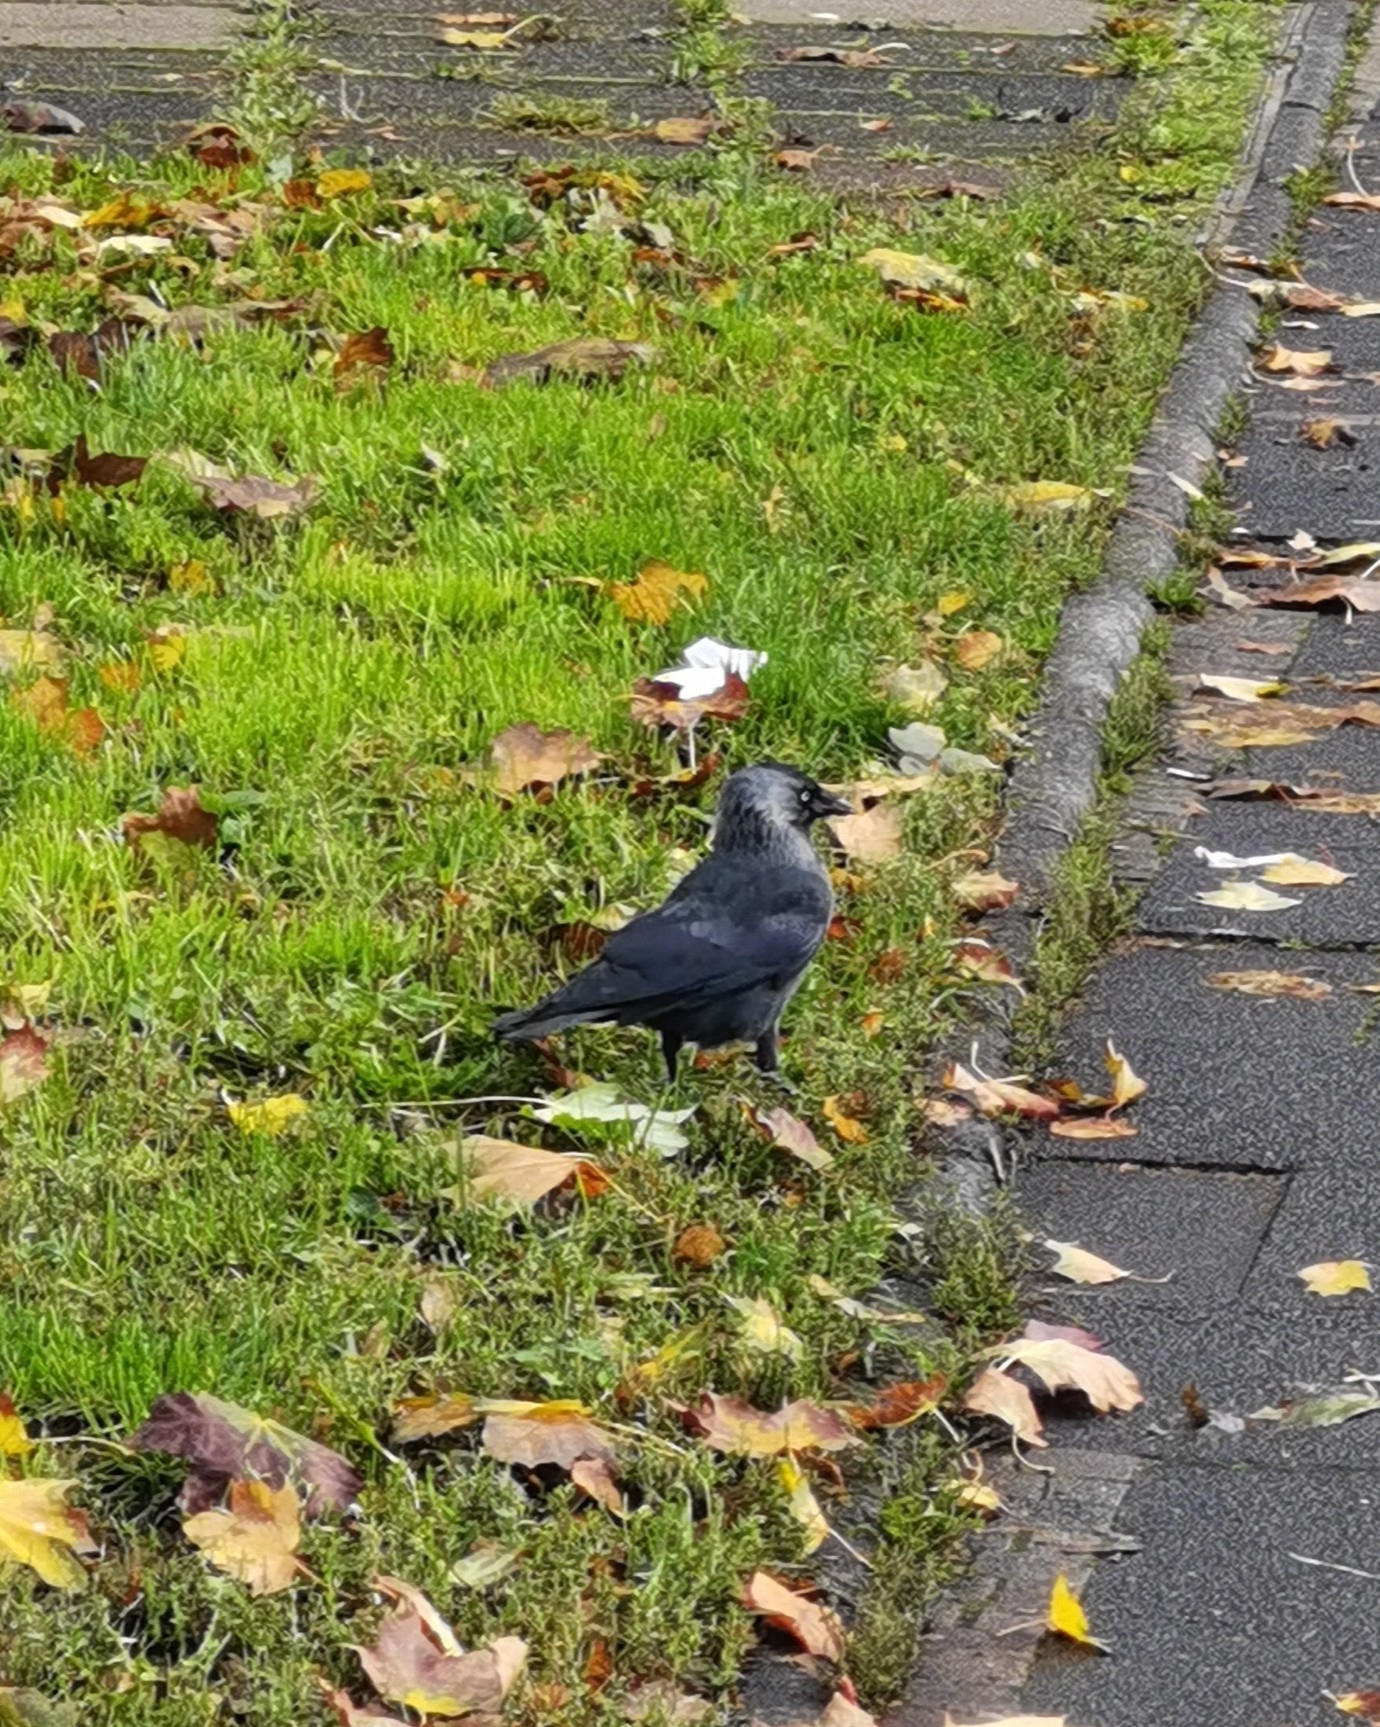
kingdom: Animalia
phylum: Chordata
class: Aves
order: Passeriformes
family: Corvidae
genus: Coloeus
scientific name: Coloeus monedula
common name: Western jackdaw
